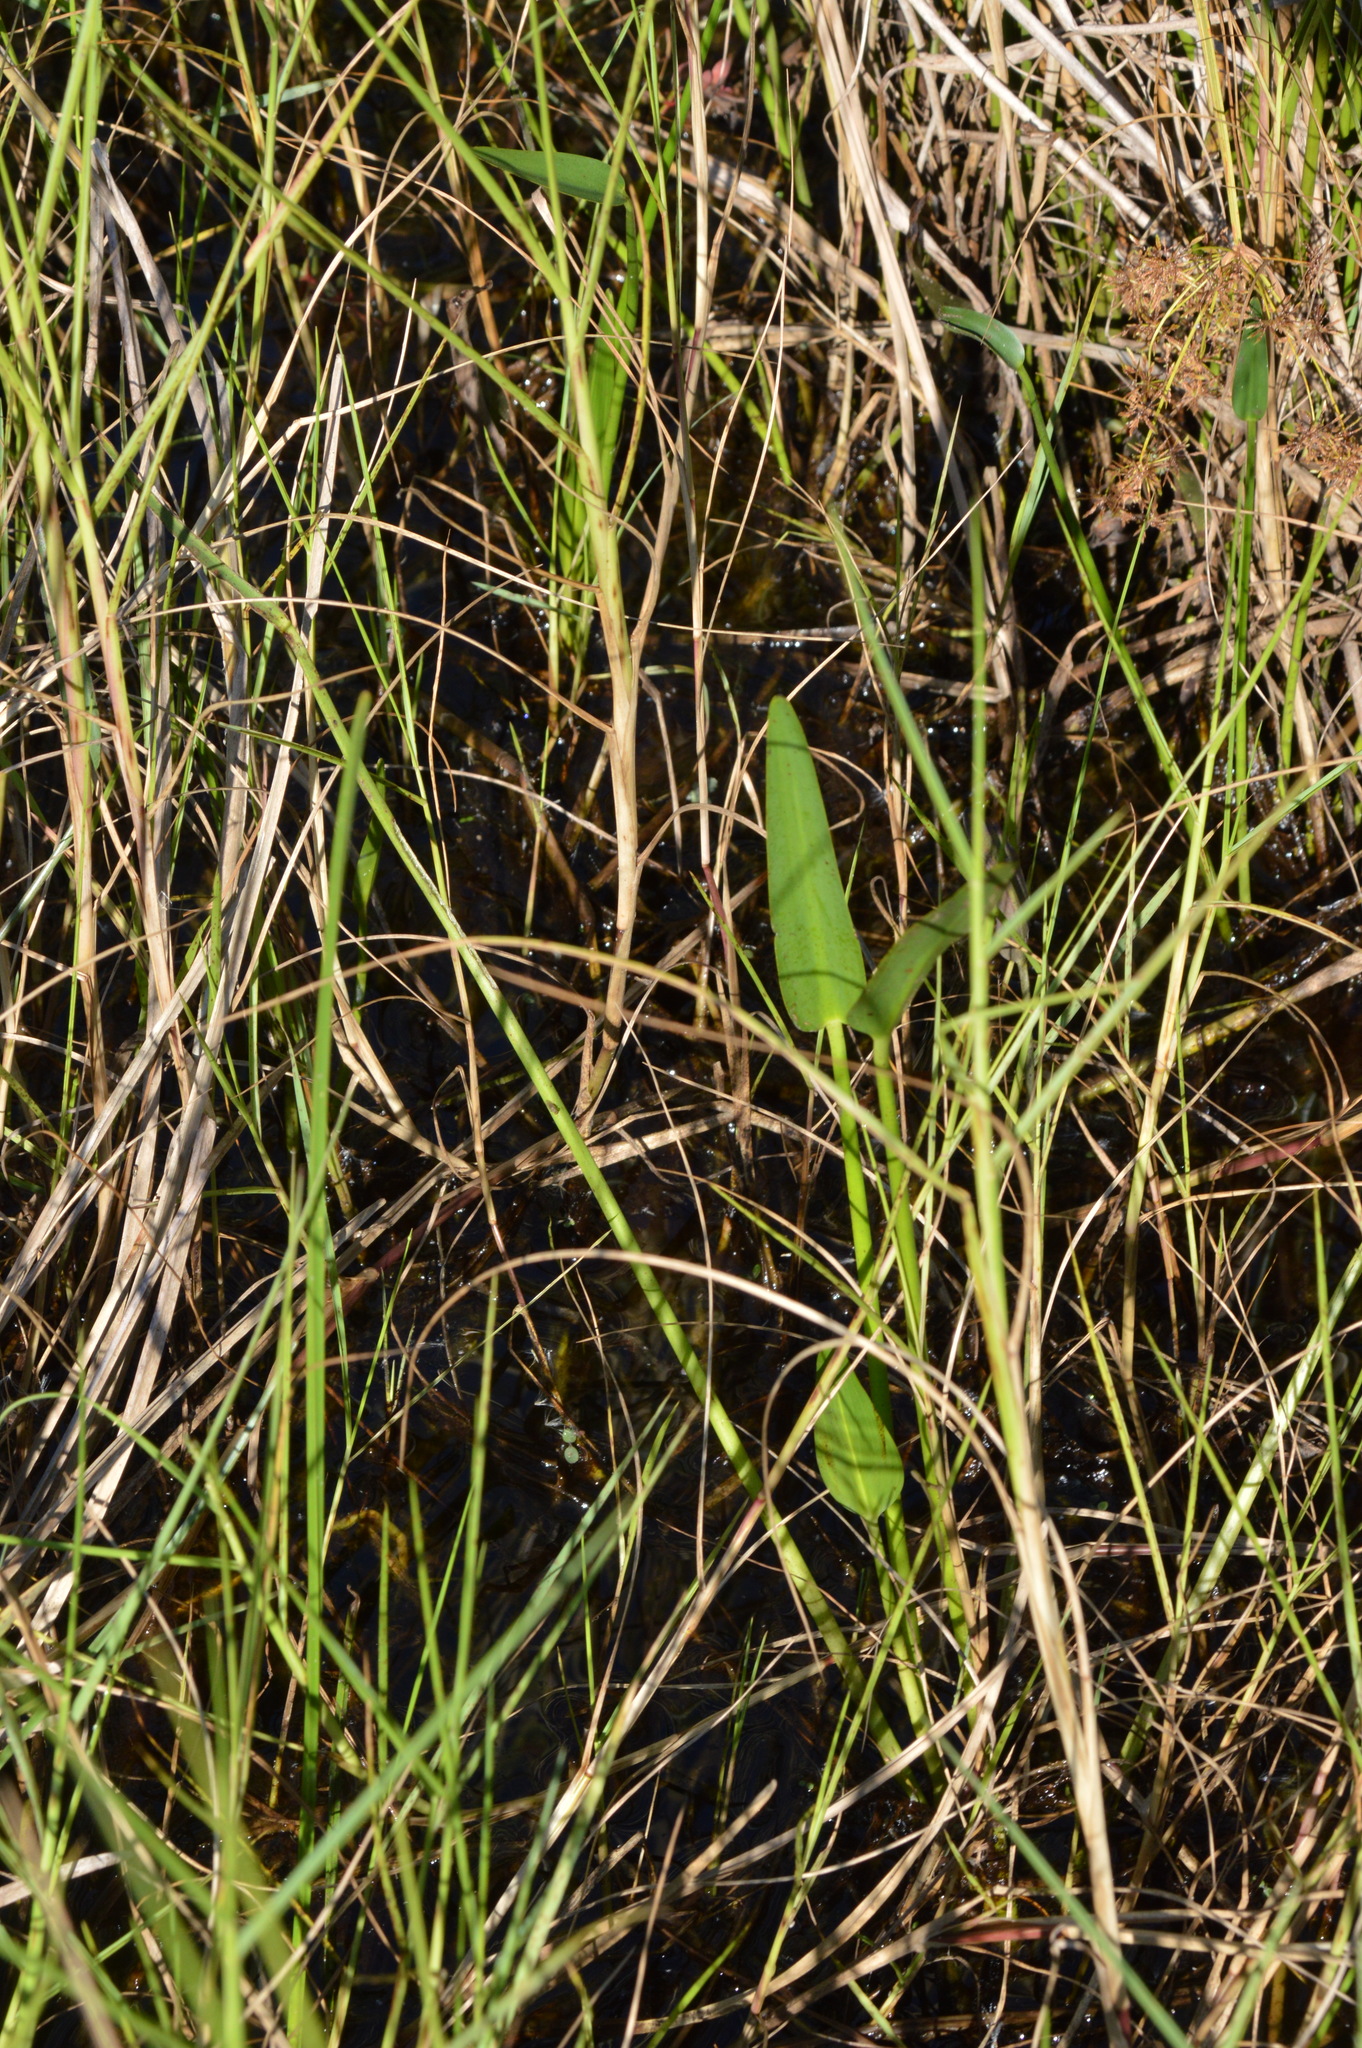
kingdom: Plantae
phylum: Tracheophyta
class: Liliopsida
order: Commelinales
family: Pontederiaceae
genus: Pontederia
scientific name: Pontederia cordata
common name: Pickerelweed
